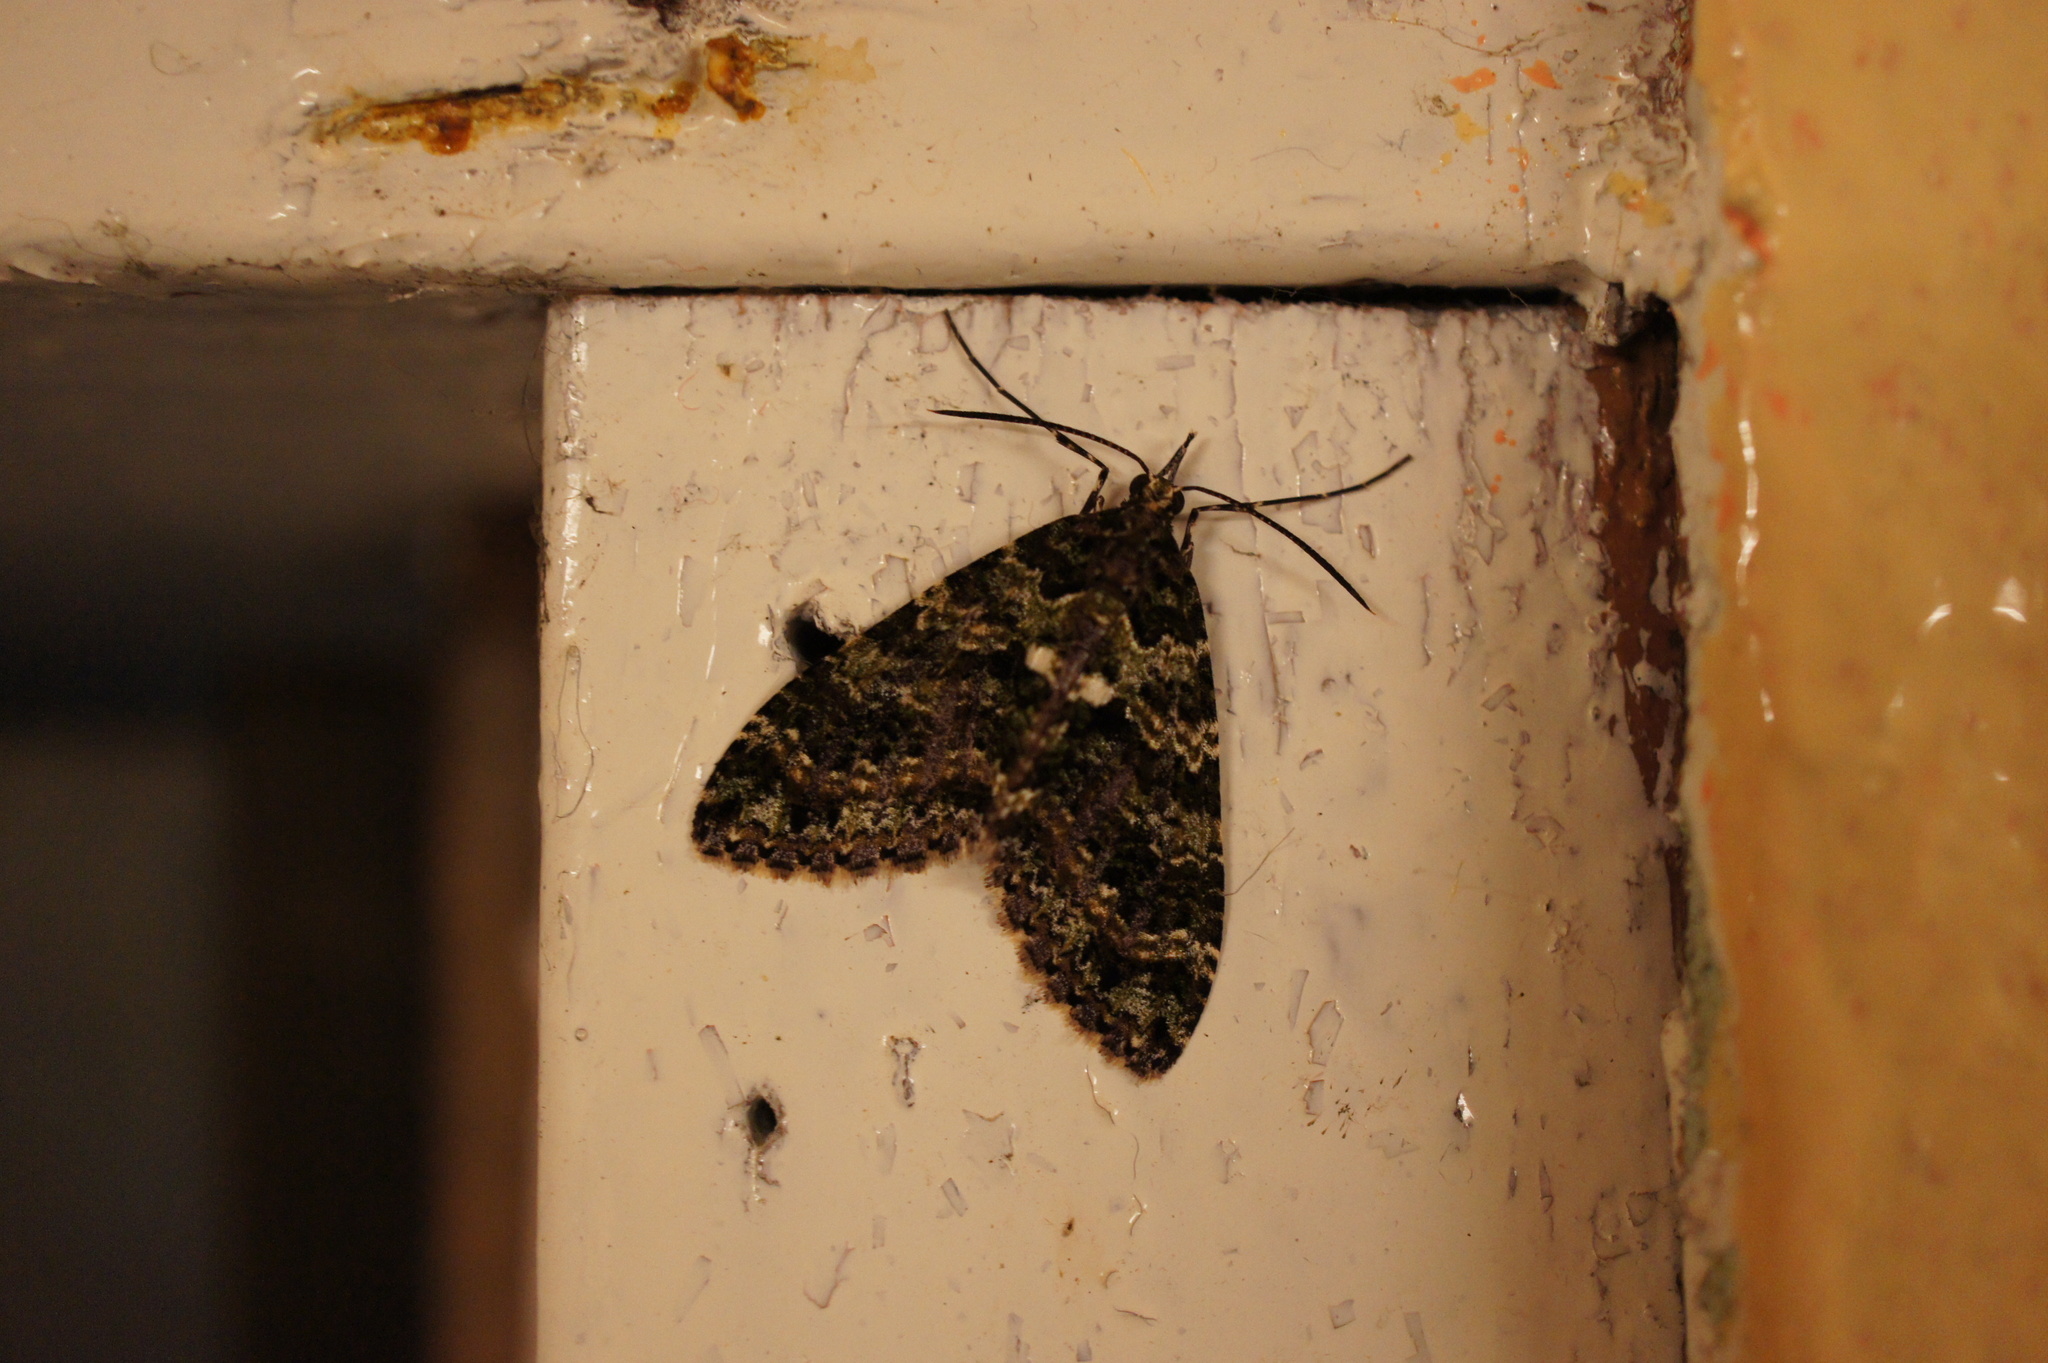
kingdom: Animalia
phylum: Arthropoda
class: Insecta
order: Lepidoptera
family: Geometridae
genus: Tympanota
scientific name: Tympanota erecta
